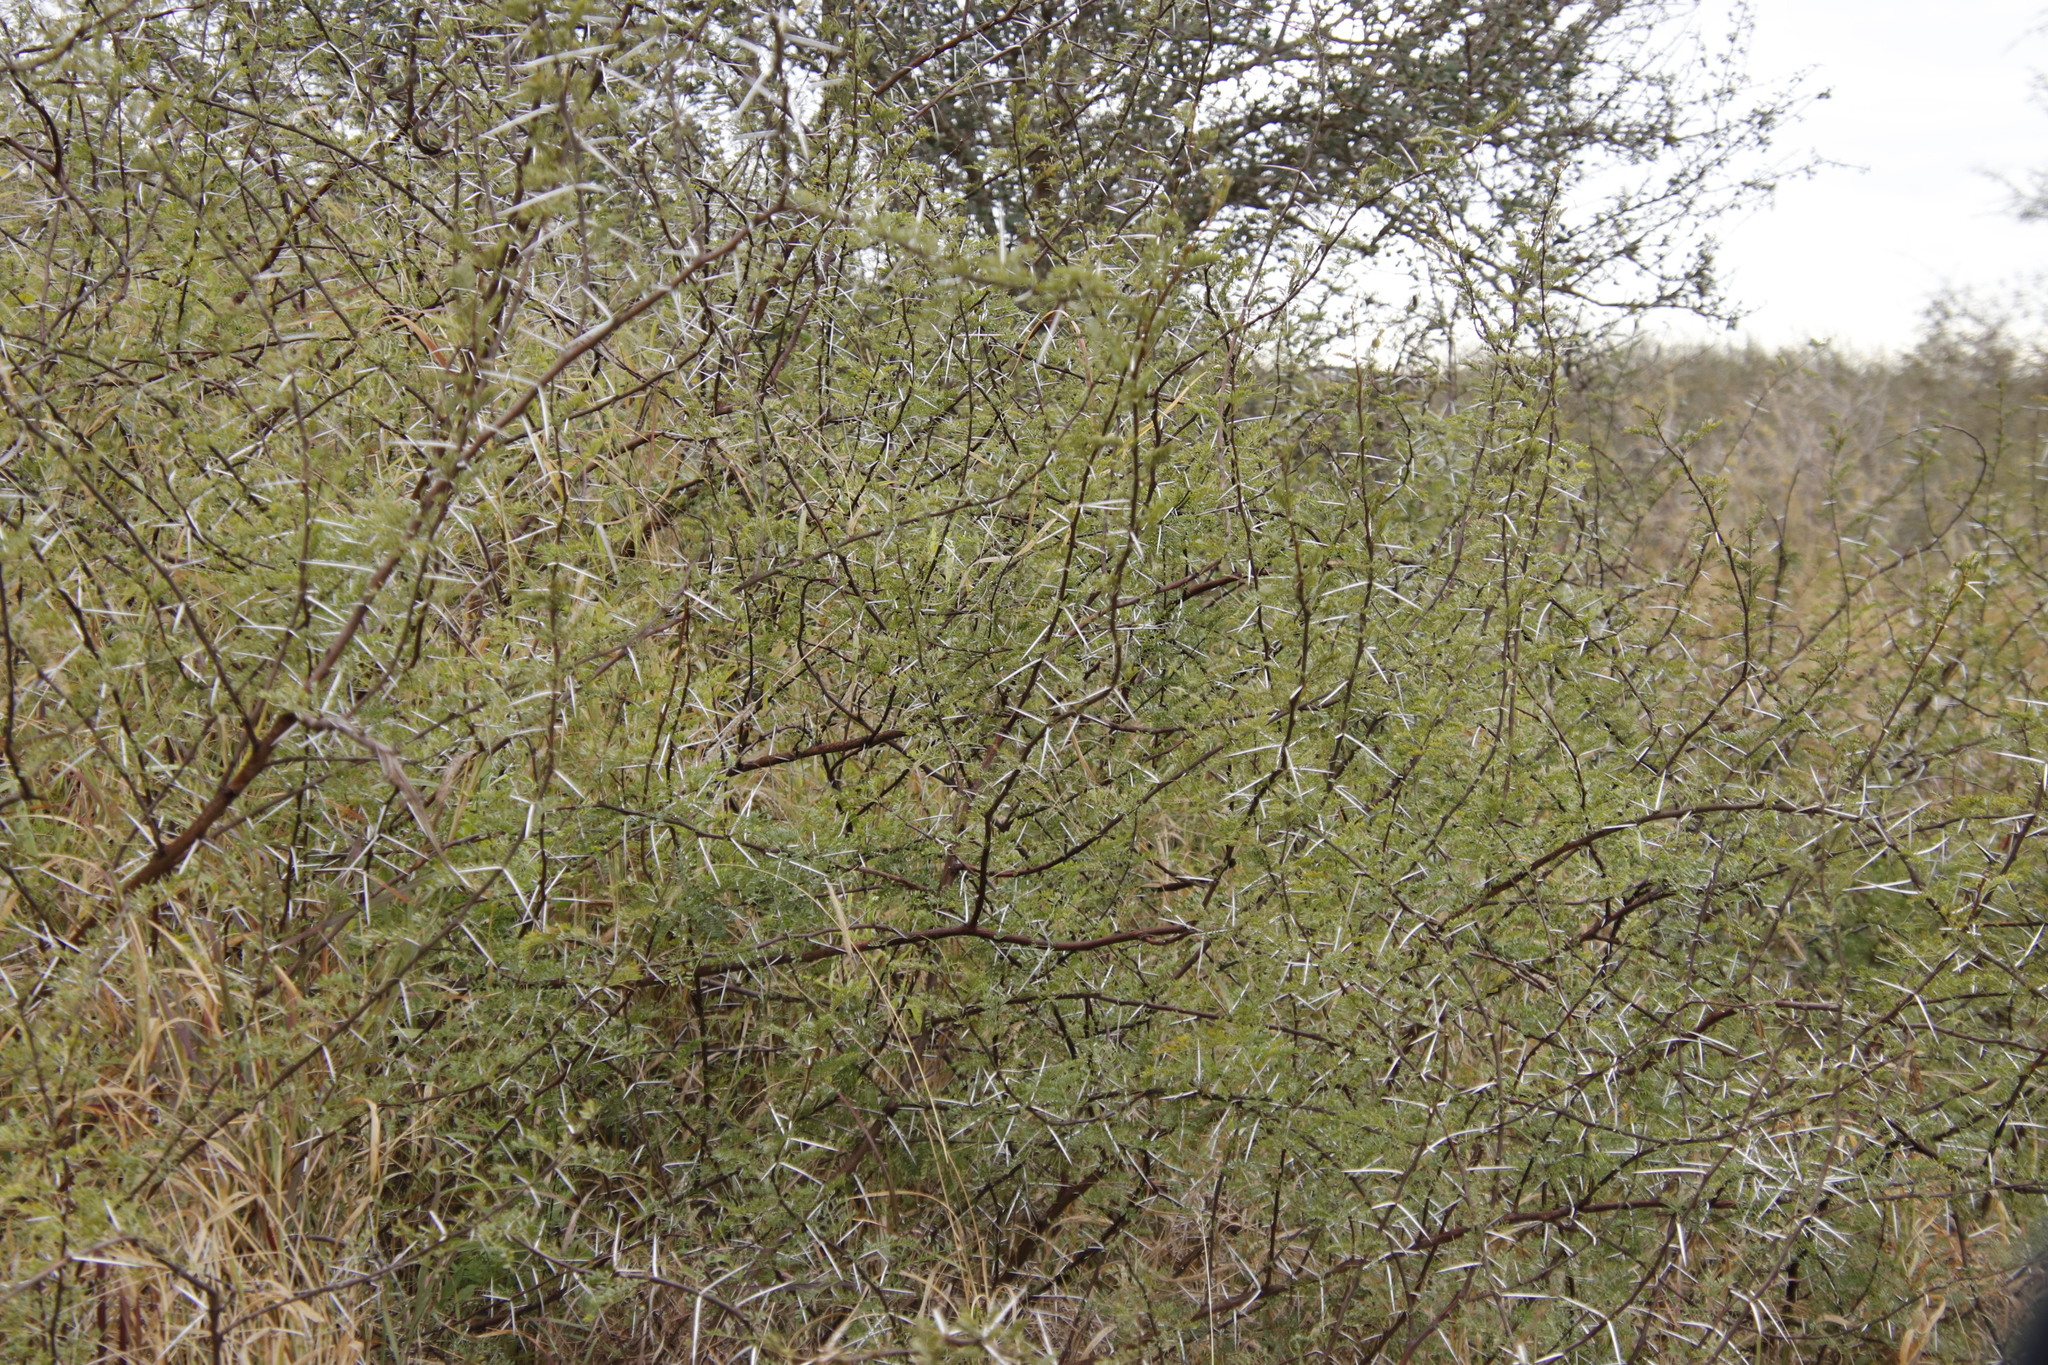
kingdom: Plantae
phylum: Tracheophyta
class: Magnoliopsida
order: Fabales
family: Fabaceae
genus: Vachellia
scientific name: Vachellia tortilis
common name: Umbrella thorn acacia
